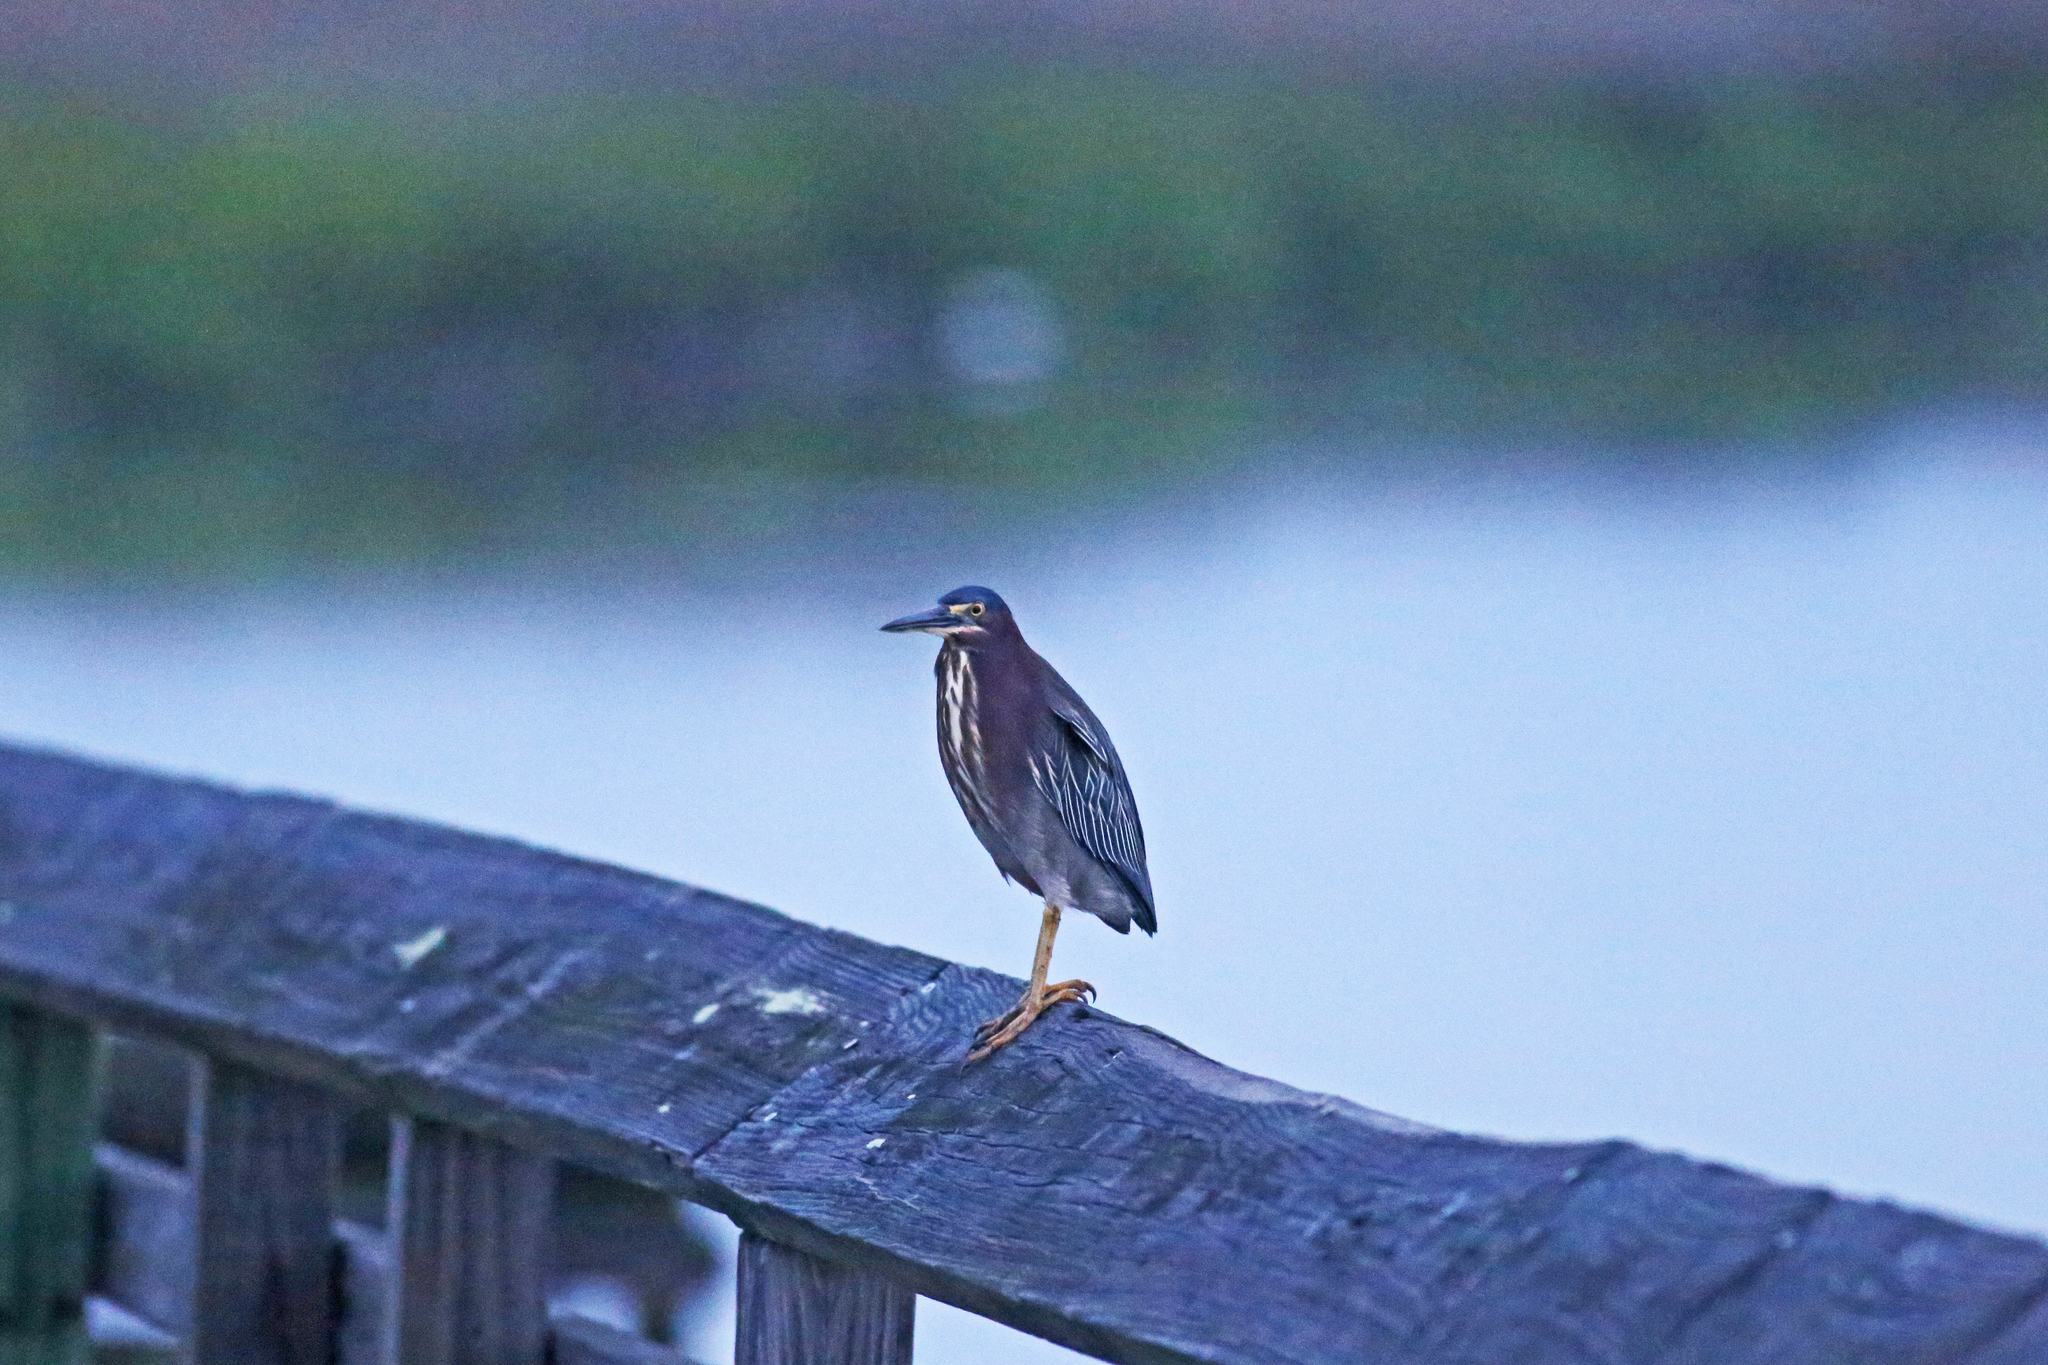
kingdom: Animalia
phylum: Chordata
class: Aves
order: Pelecaniformes
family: Ardeidae
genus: Butorides
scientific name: Butorides virescens
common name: Green heron
